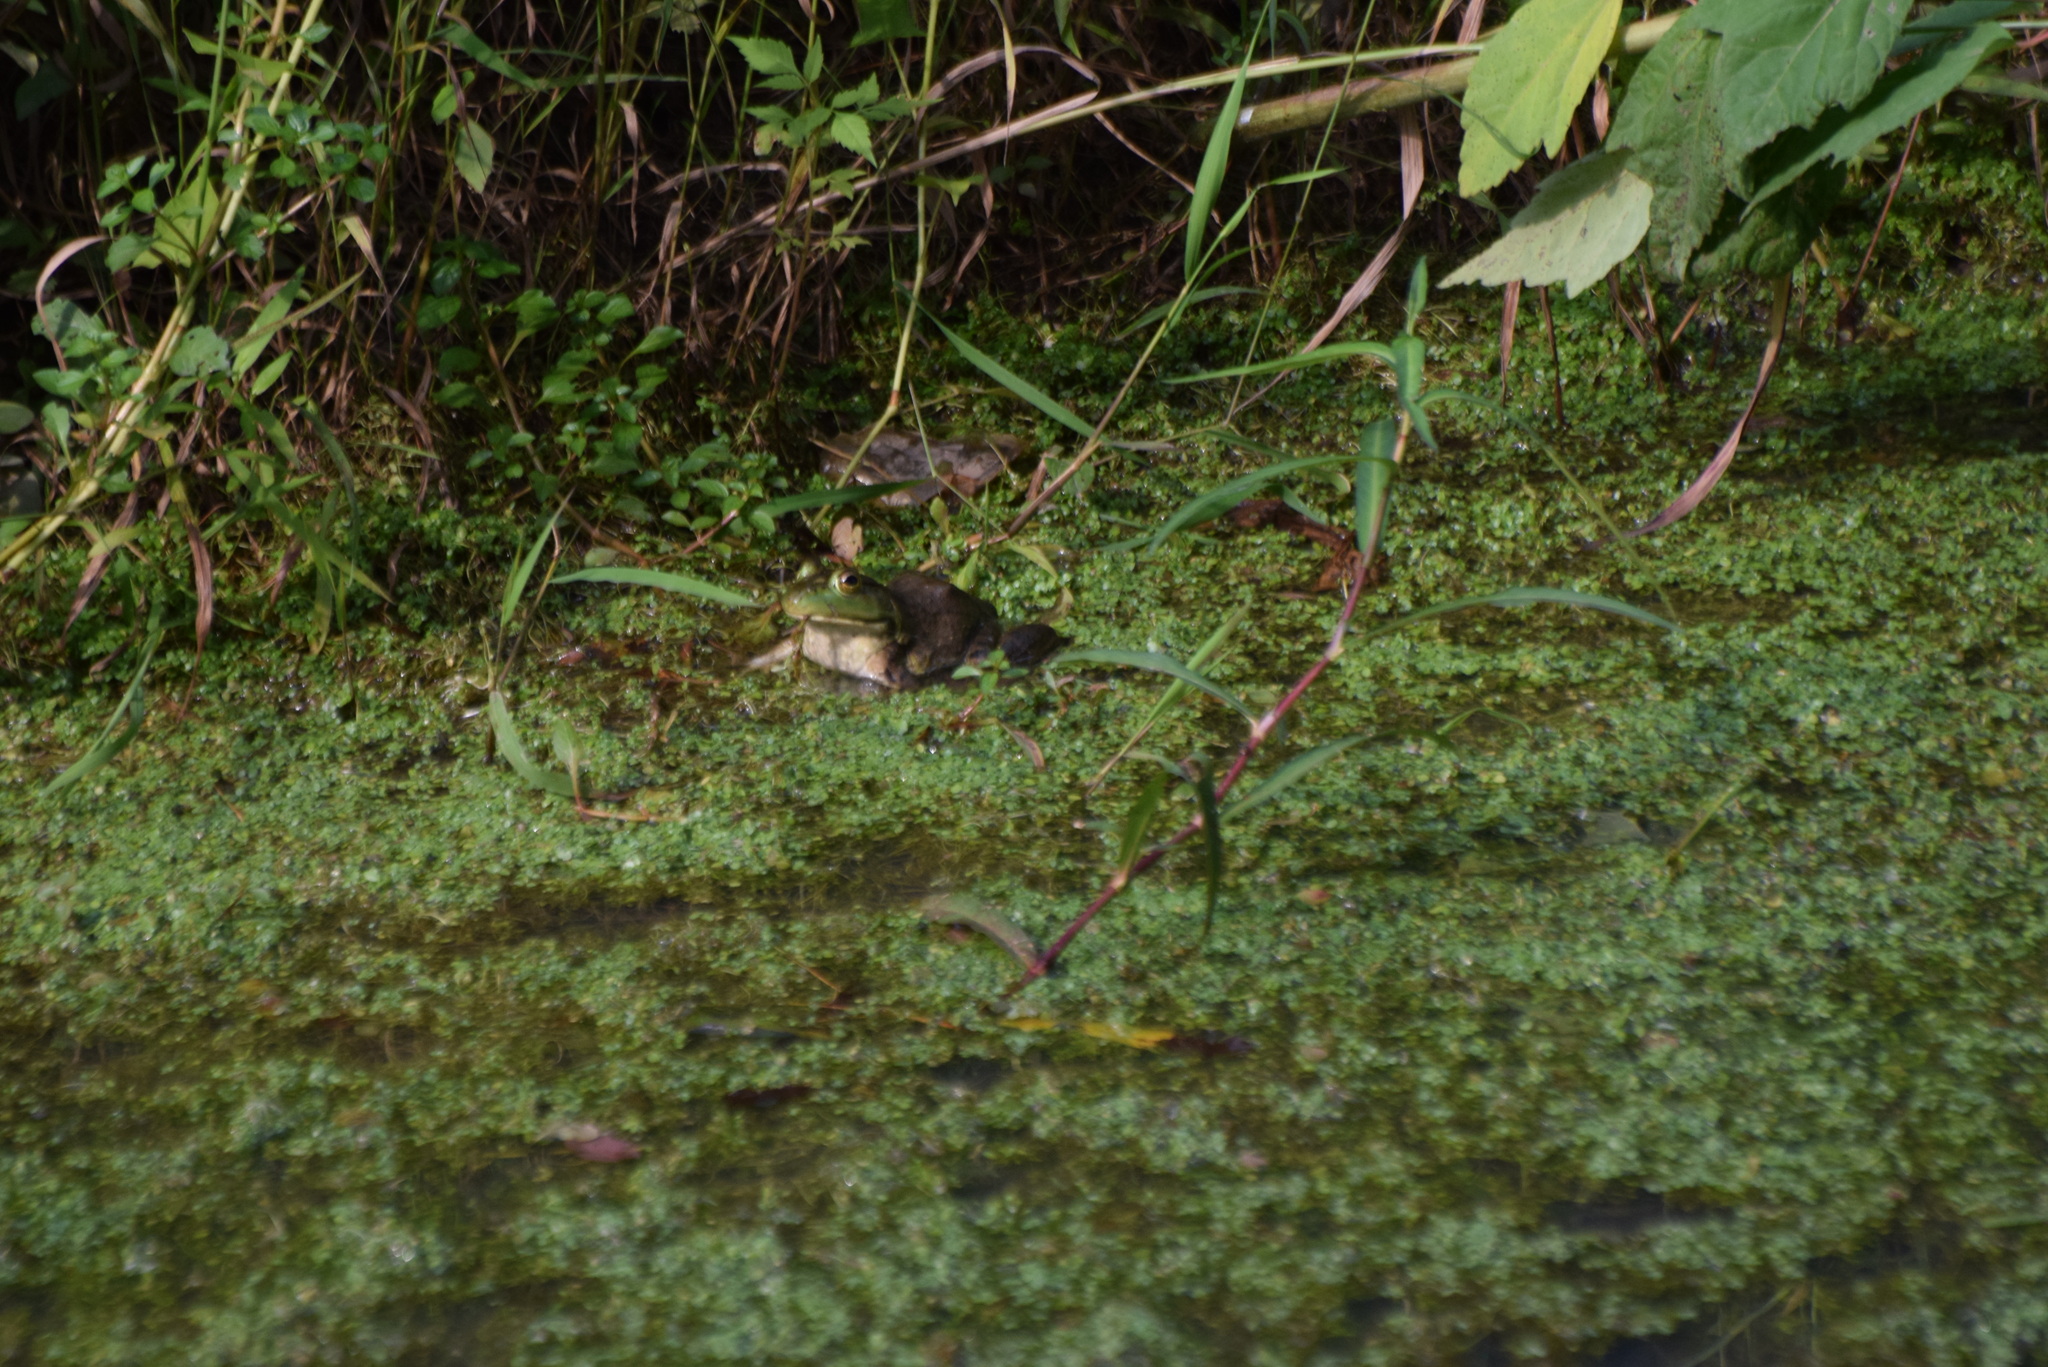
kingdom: Animalia
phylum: Chordata
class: Amphibia
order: Anura
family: Ranidae
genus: Lithobates
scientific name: Lithobates catesbeianus
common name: American bullfrog
